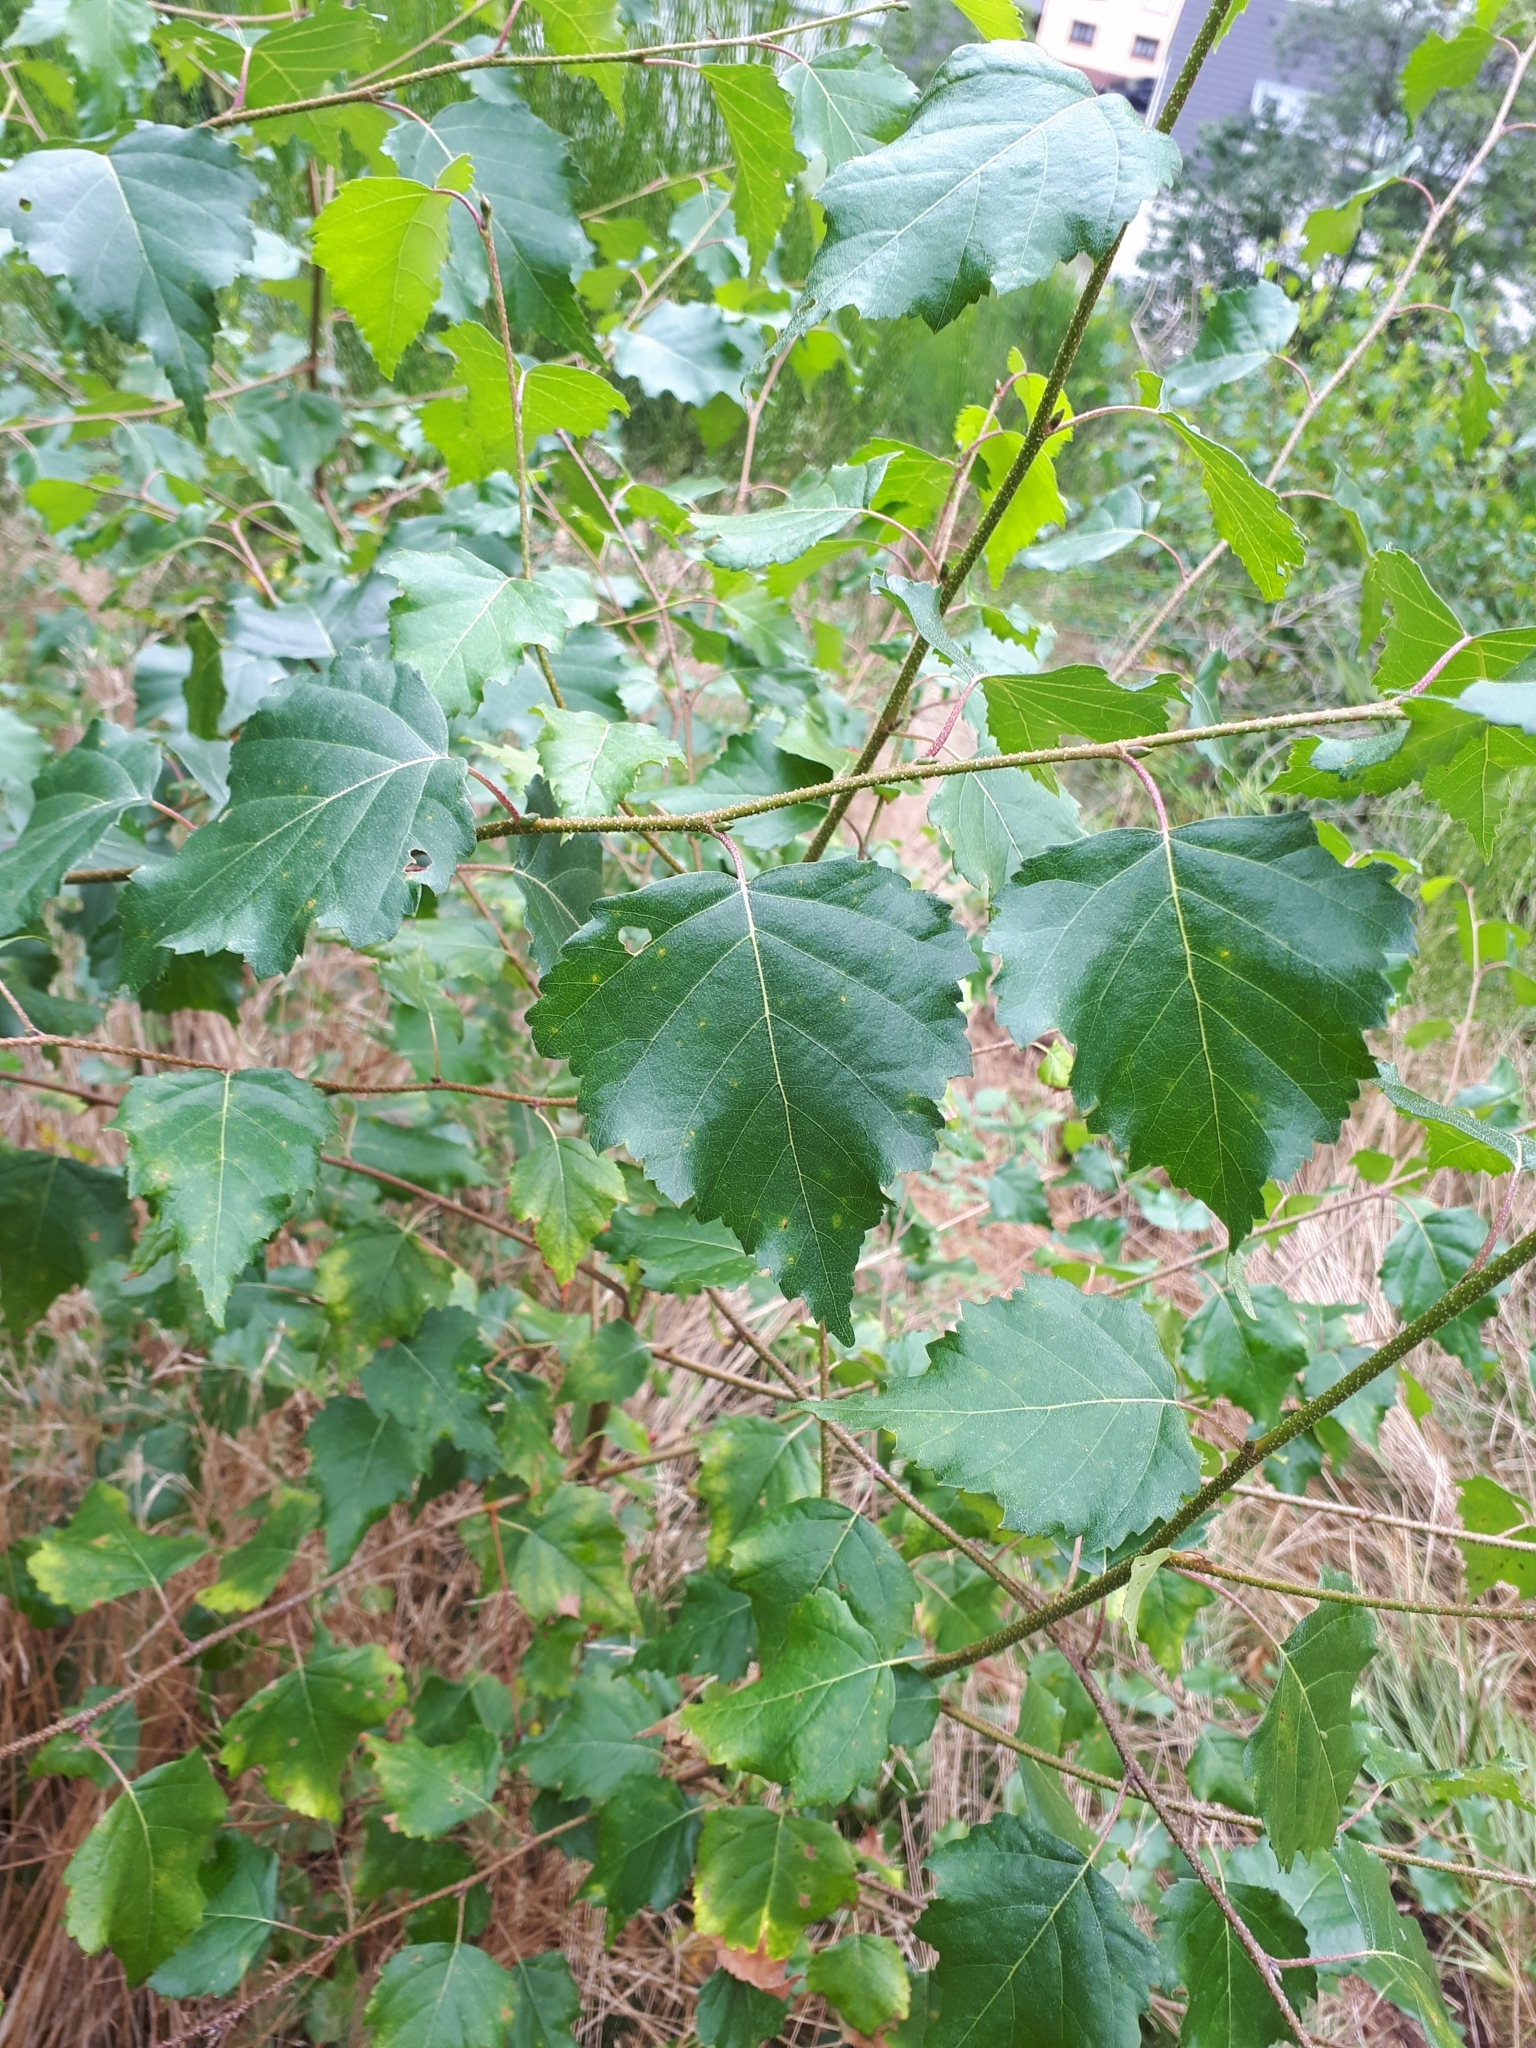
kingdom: Plantae
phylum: Tracheophyta
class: Magnoliopsida
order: Fagales
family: Betulaceae
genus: Betula
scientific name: Betula pendula
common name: Silver birch
